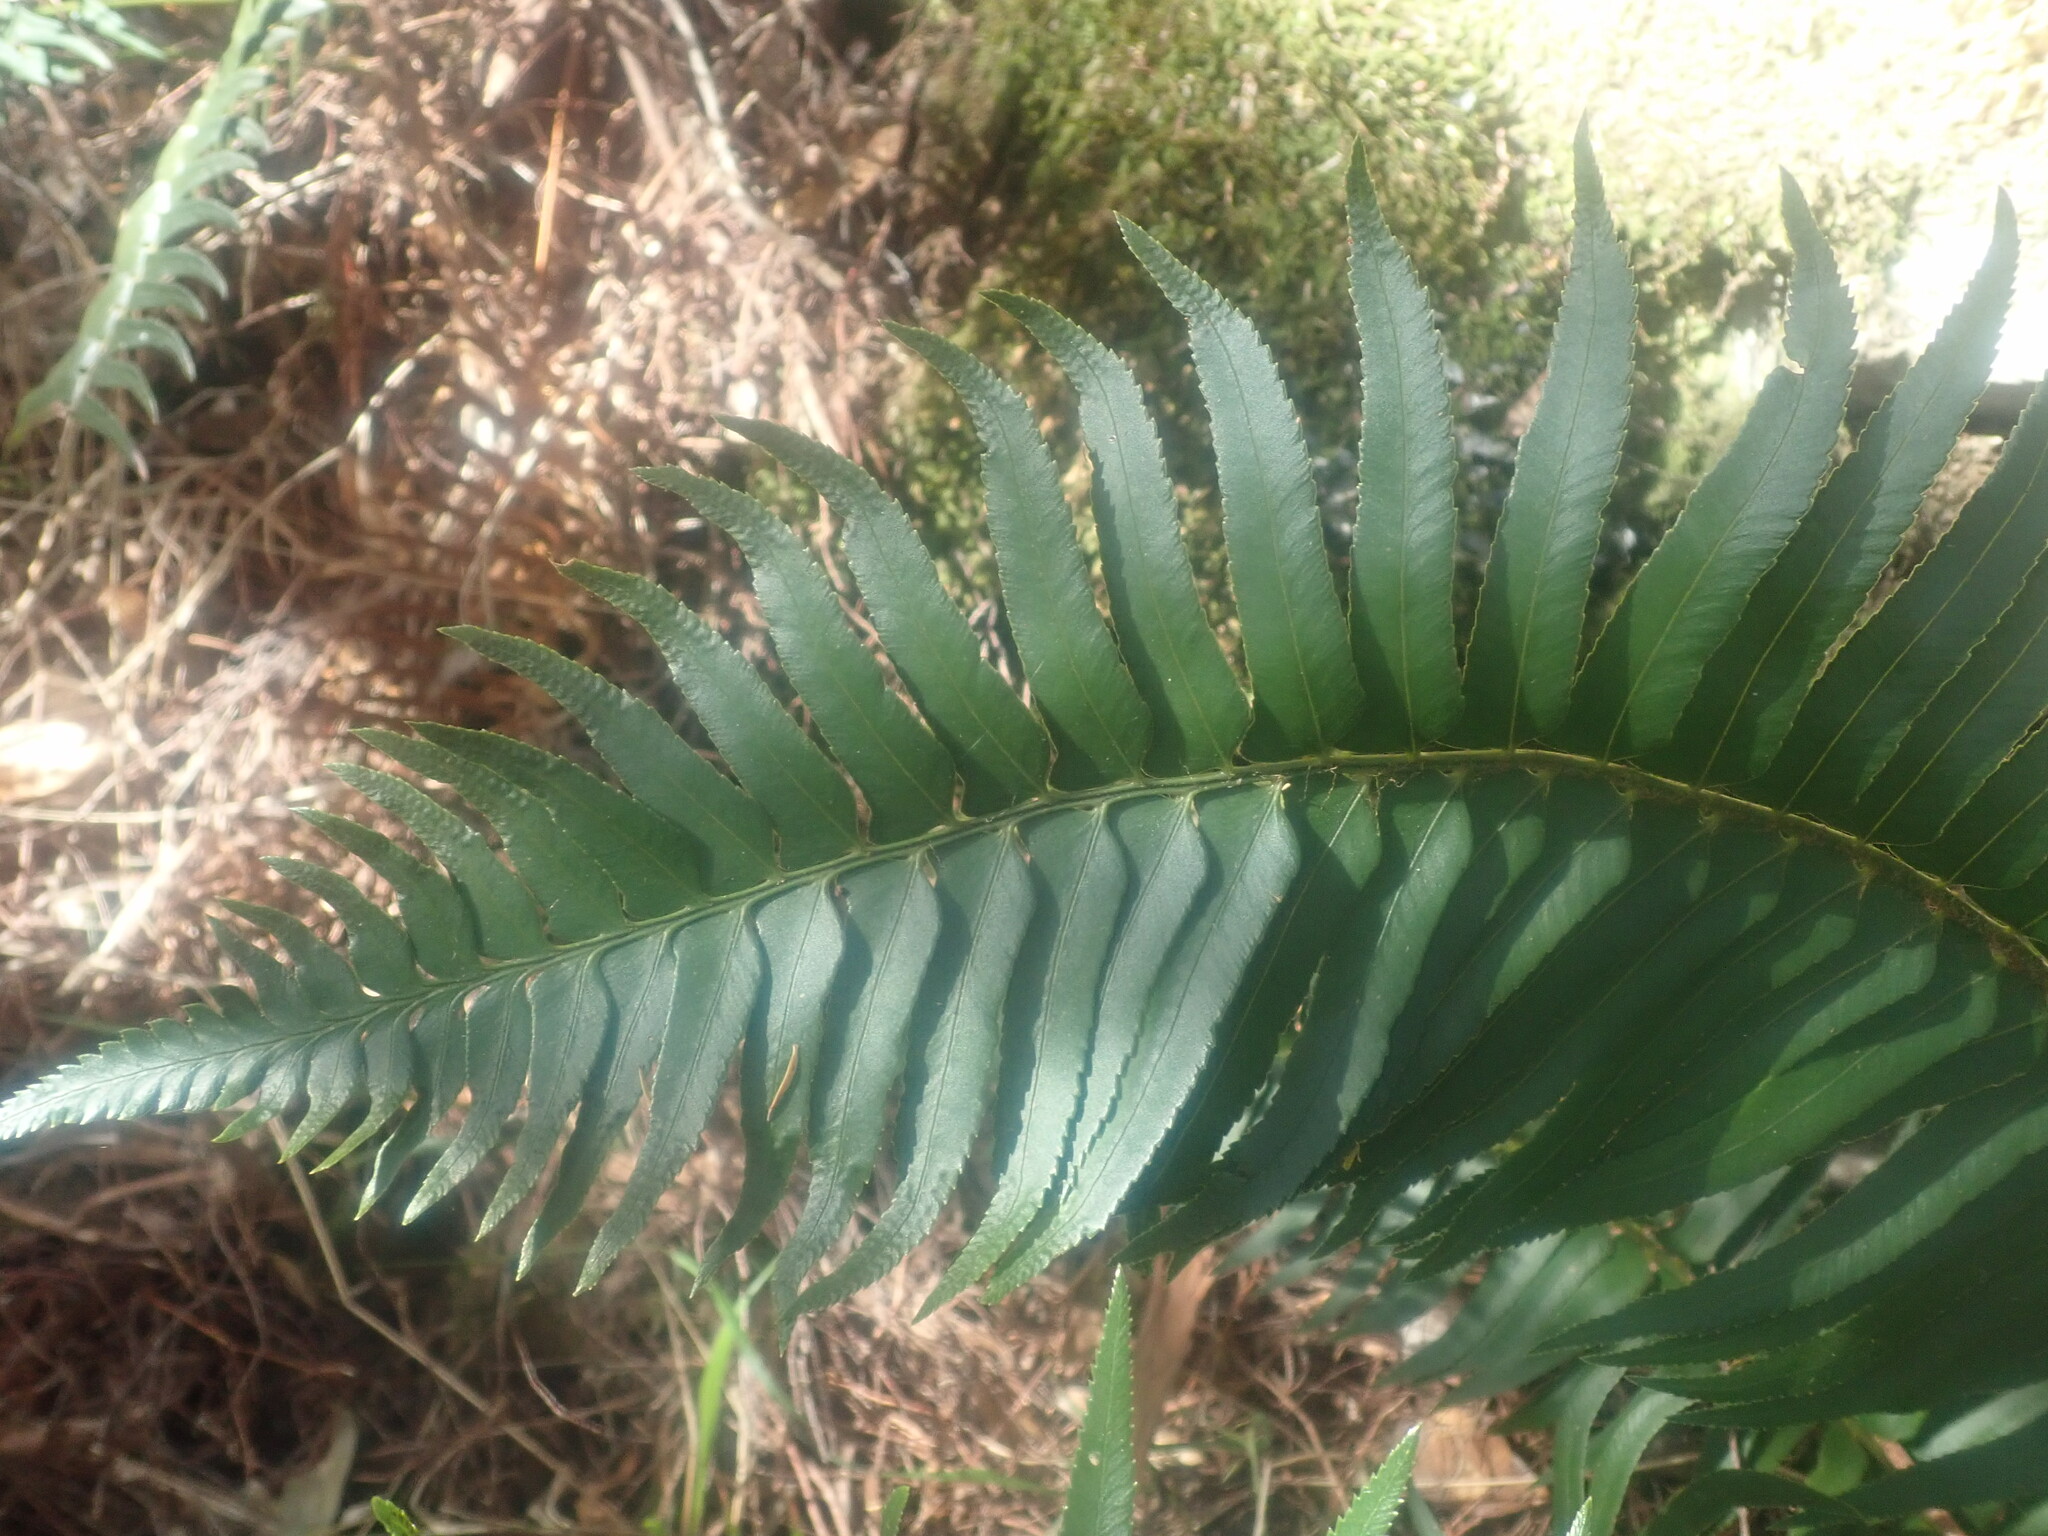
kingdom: Plantae
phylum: Tracheophyta
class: Polypodiopsida
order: Polypodiales
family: Dryopteridaceae
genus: Polystichum
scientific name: Polystichum falcinellum
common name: Madeira sword-fern
